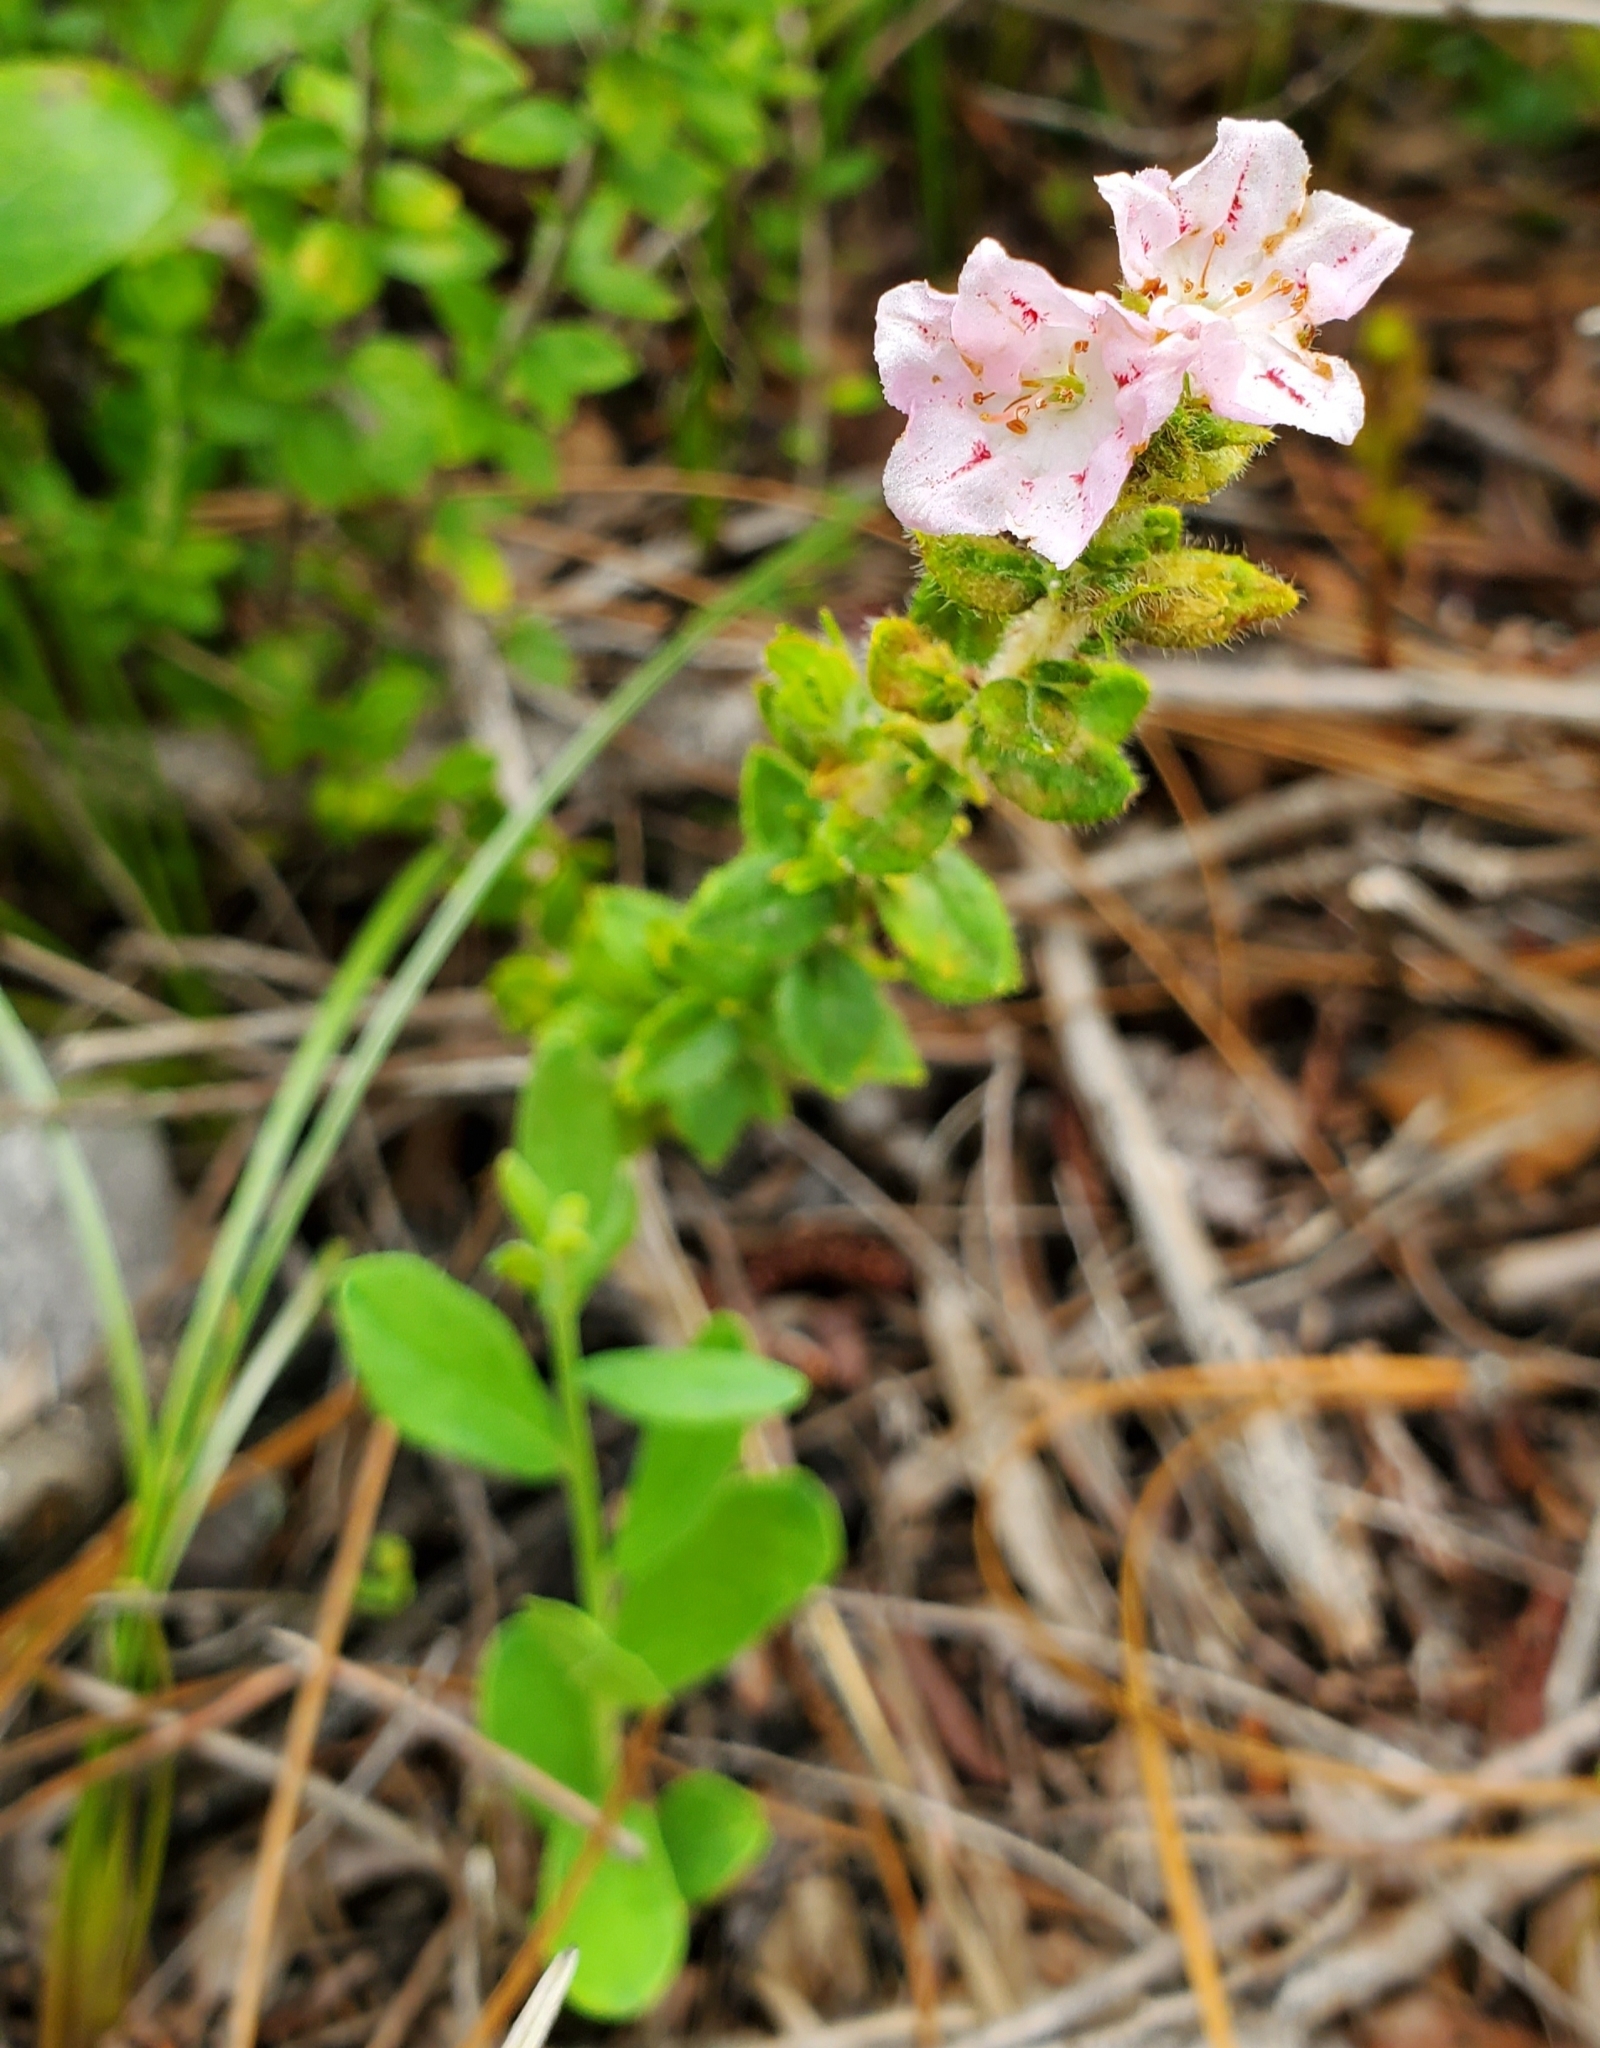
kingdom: Plantae
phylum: Tracheophyta
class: Magnoliopsida
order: Ericales
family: Ericaceae
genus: Kalmia
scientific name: Kalmia hirsuta
